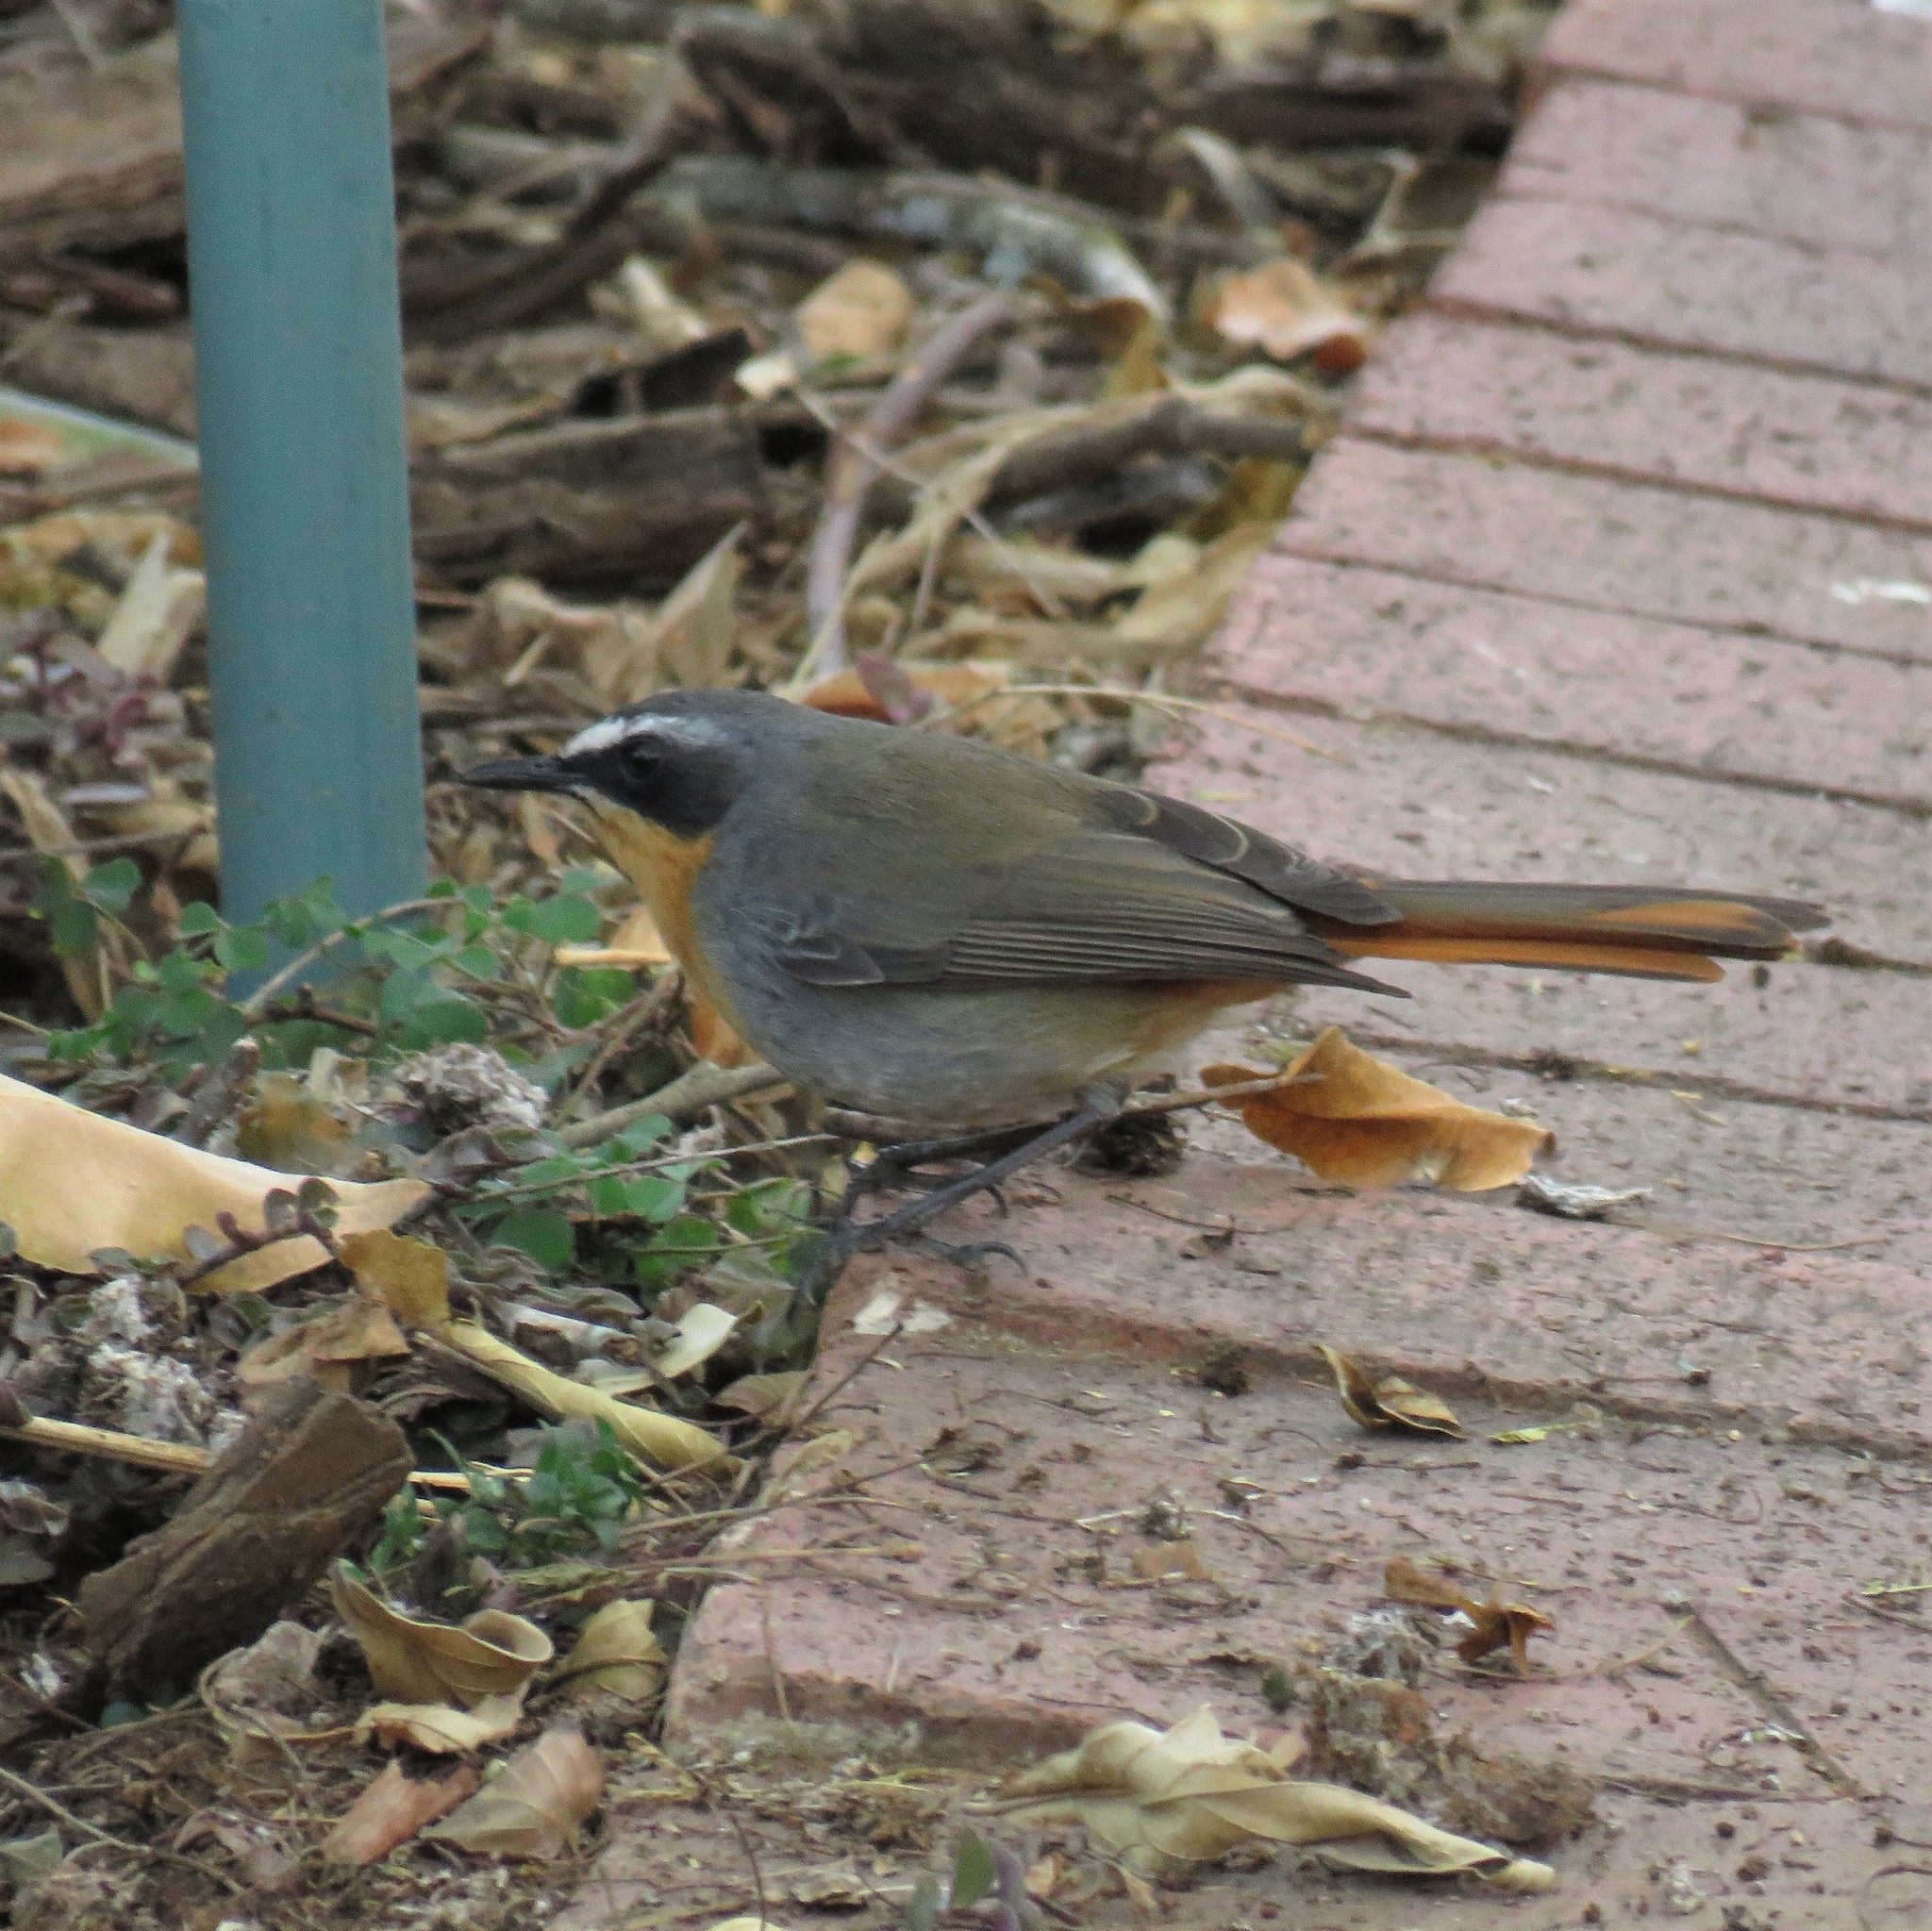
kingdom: Animalia
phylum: Chordata
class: Aves
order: Passeriformes
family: Muscicapidae
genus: Cossypha
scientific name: Cossypha caffra
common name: Cape robin-chat
